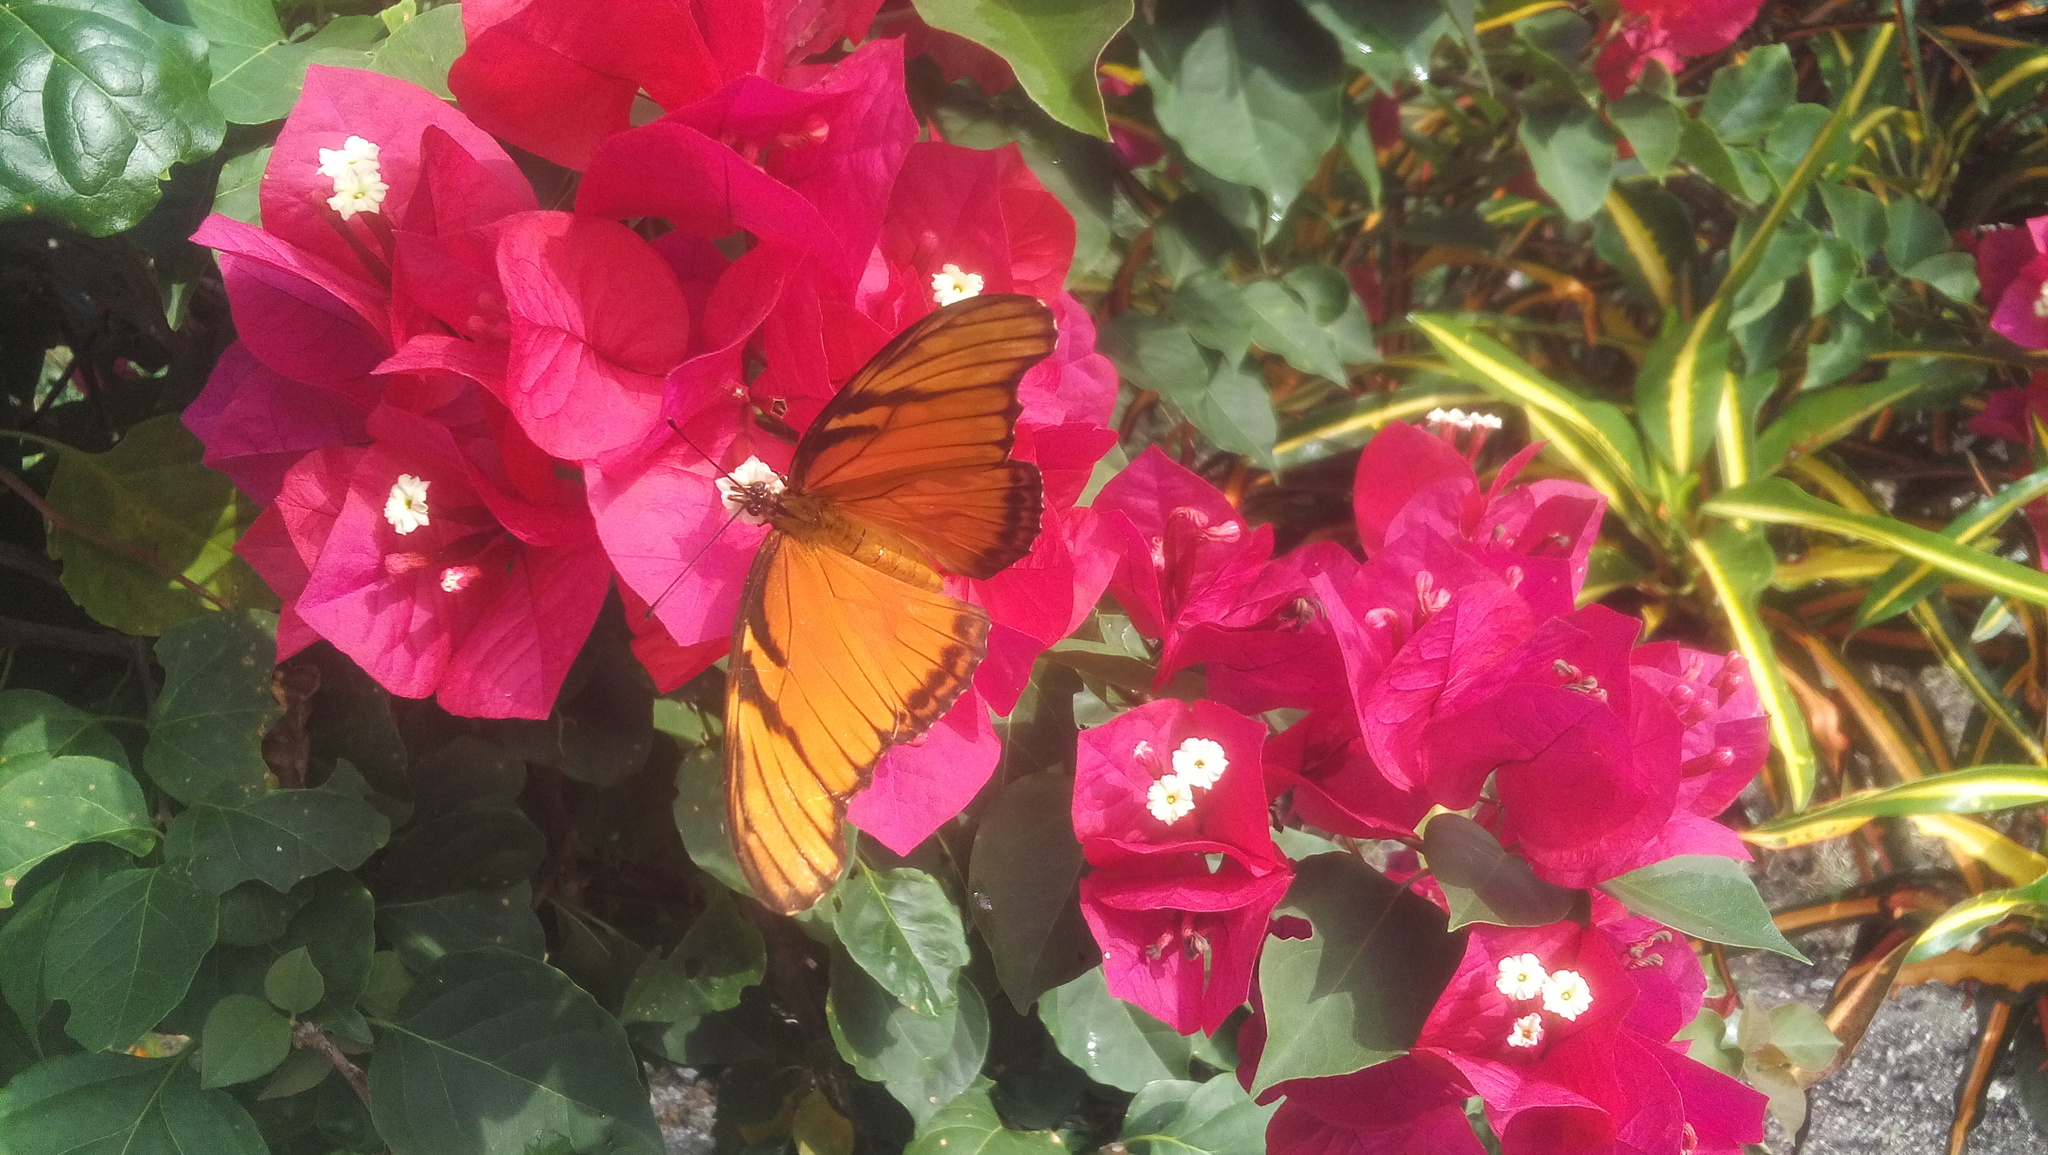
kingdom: Animalia
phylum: Arthropoda
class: Insecta
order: Lepidoptera
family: Nymphalidae
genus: Dione
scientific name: Dione juno
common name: Juno silverspot
